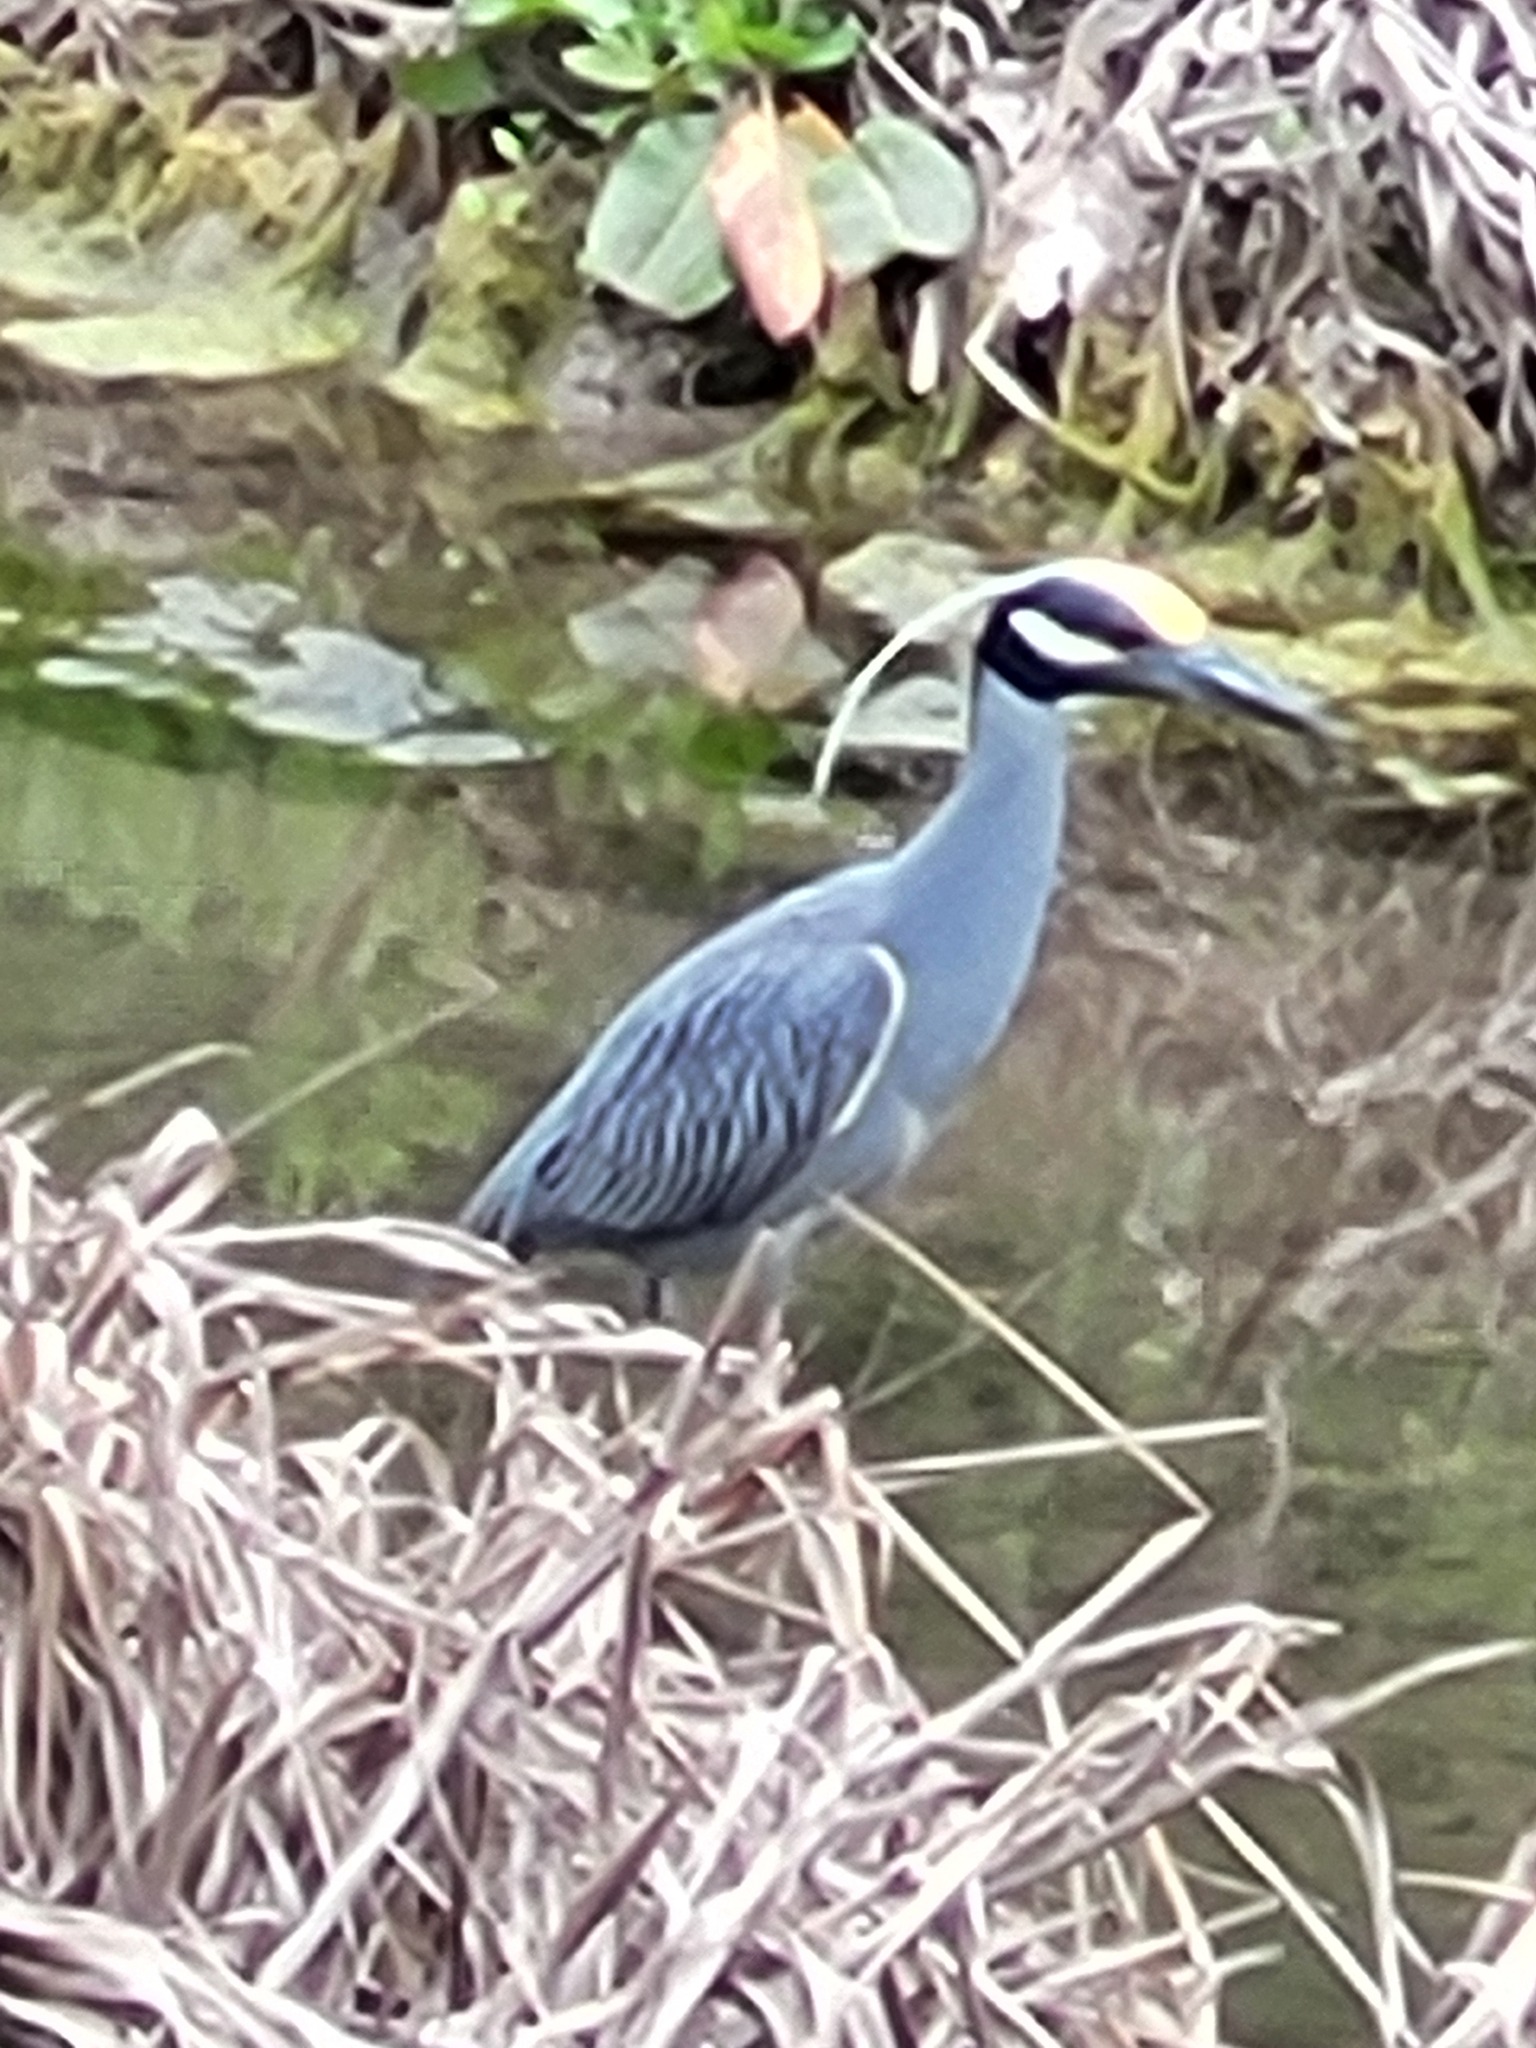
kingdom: Animalia
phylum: Chordata
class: Aves
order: Pelecaniformes
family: Ardeidae
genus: Nyctanassa
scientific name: Nyctanassa violacea
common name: Yellow-crowned night heron
